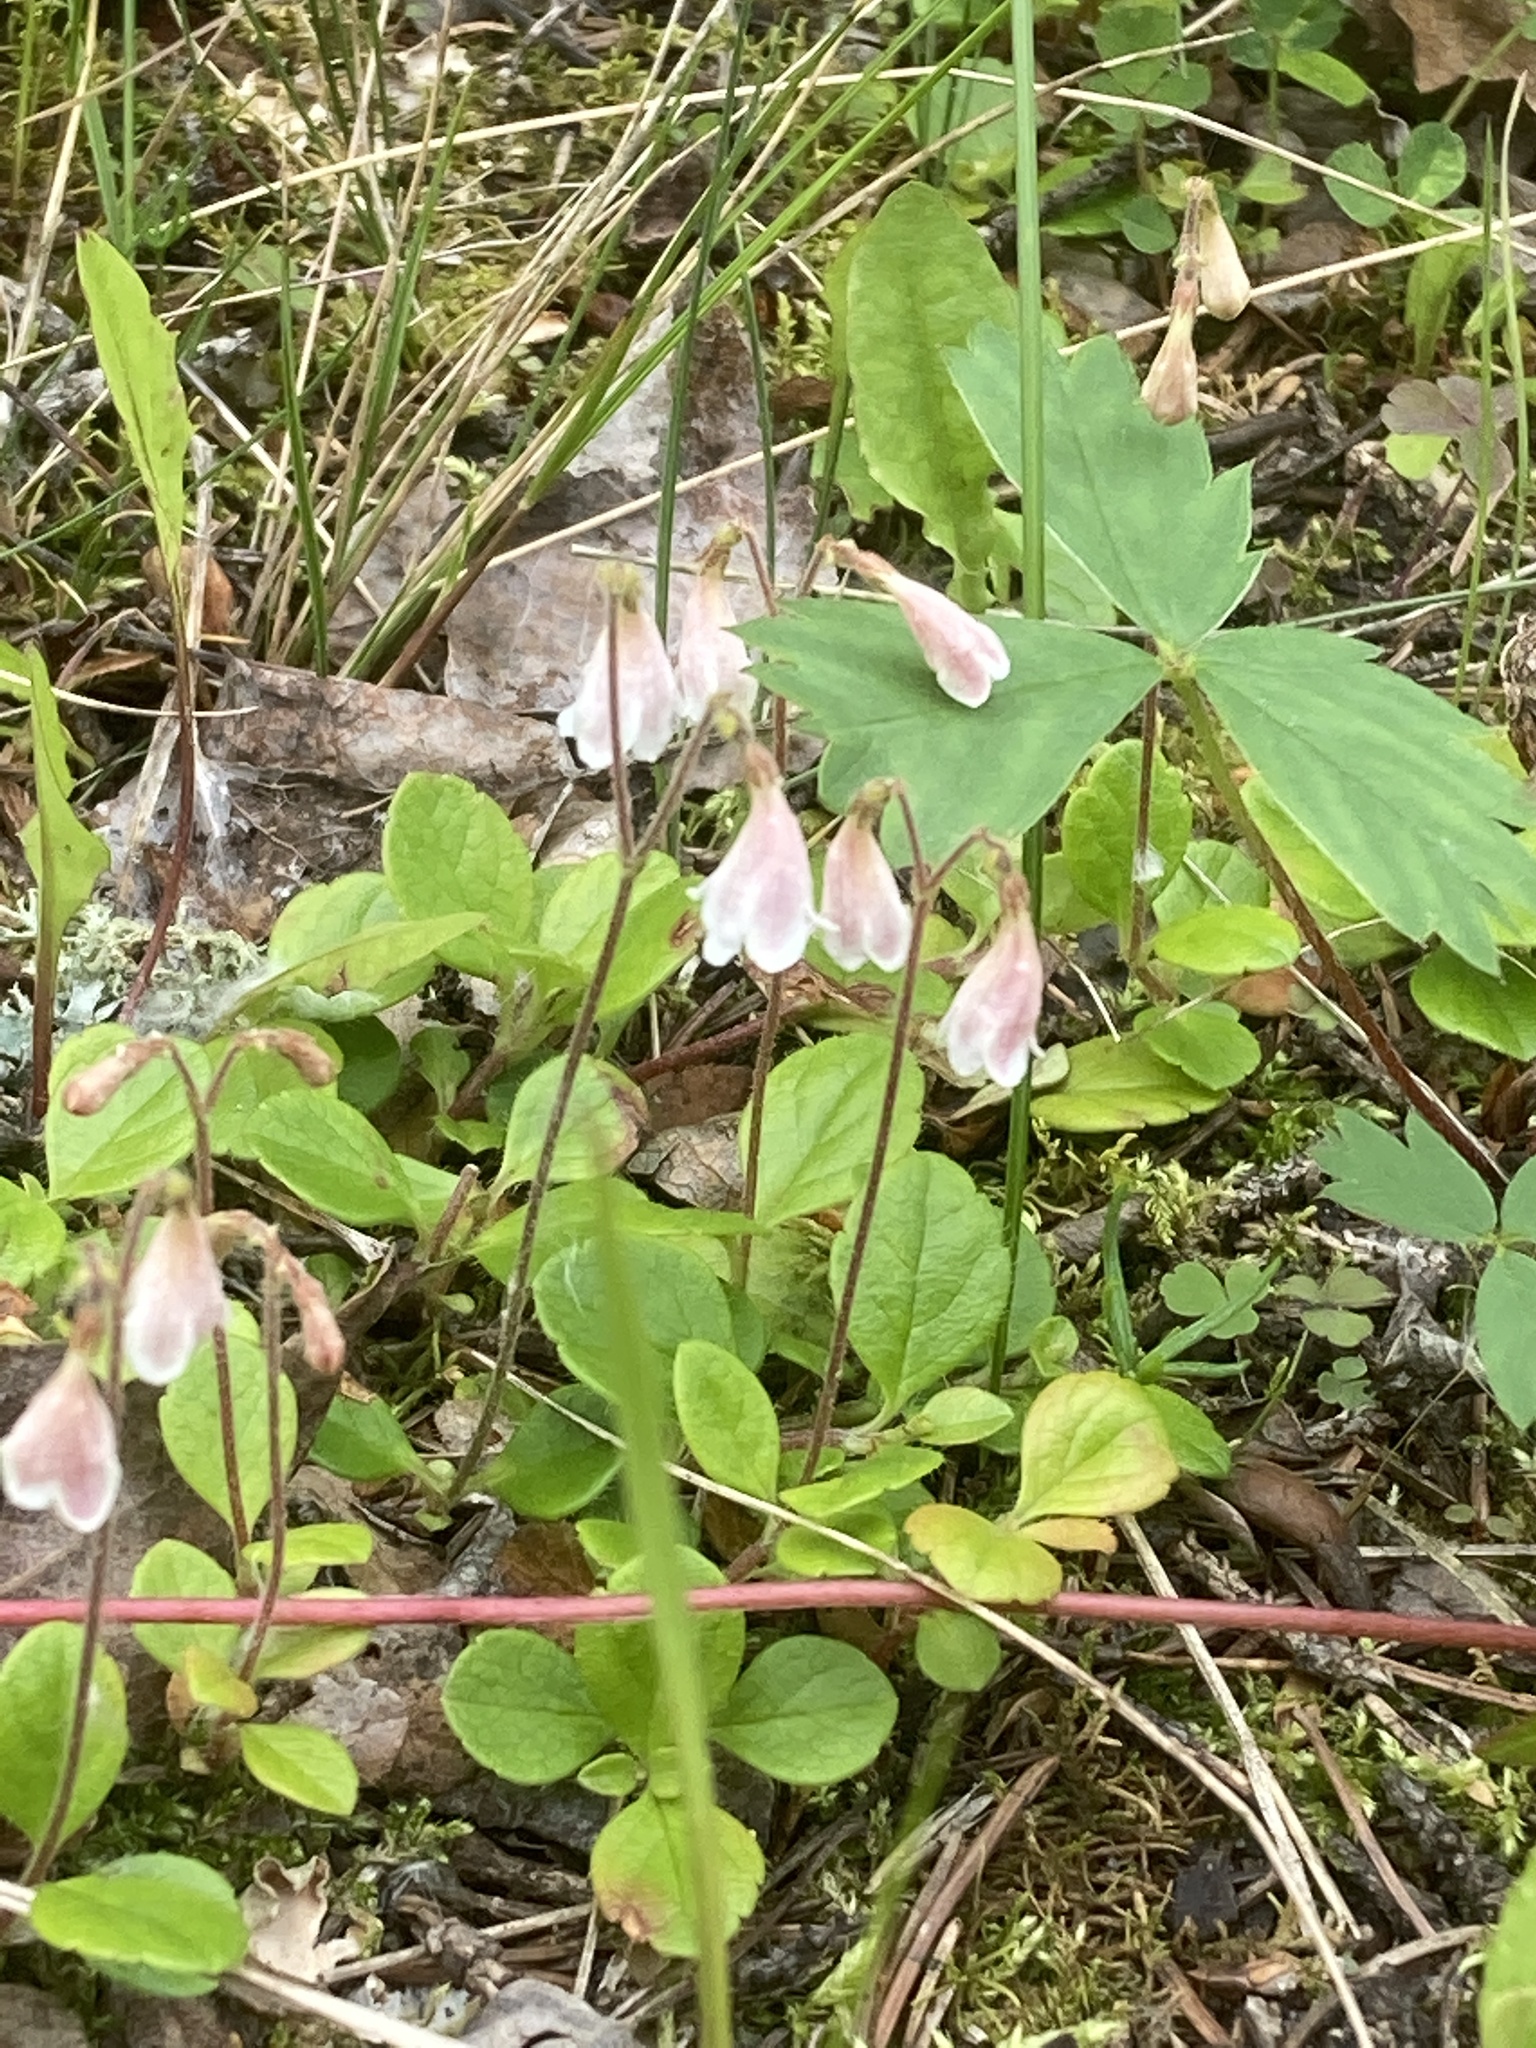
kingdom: Plantae
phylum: Tracheophyta
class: Magnoliopsida
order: Dipsacales
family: Caprifoliaceae
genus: Linnaea
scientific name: Linnaea borealis
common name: Twinflower
